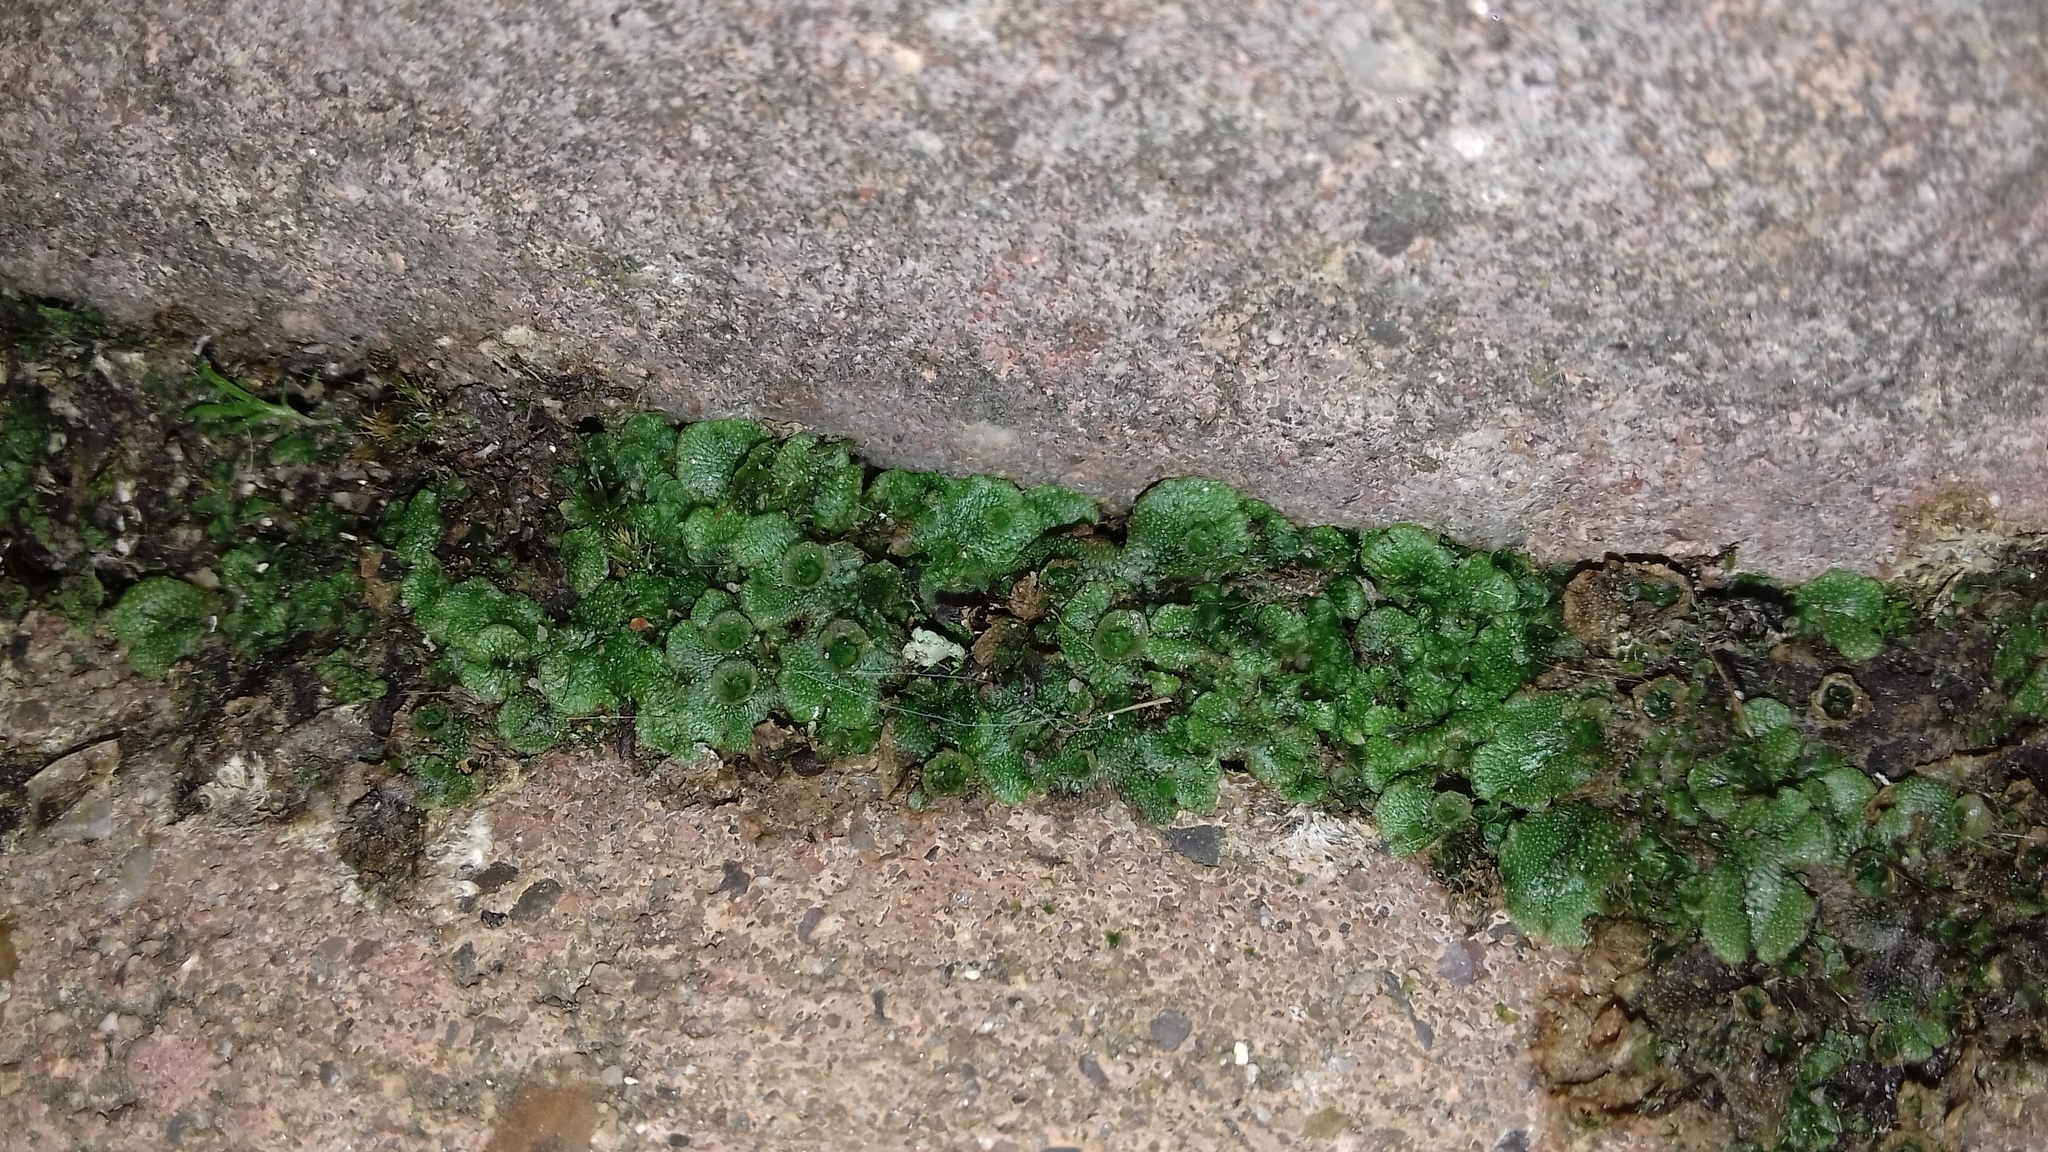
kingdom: Plantae
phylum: Marchantiophyta
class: Marchantiopsida
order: Marchantiales
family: Marchantiaceae
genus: Marchantia
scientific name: Marchantia polymorpha
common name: Common liverwort
